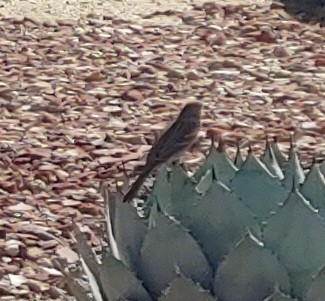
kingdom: Animalia
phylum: Chordata
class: Aves
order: Passeriformes
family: Fringillidae
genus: Haemorhous
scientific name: Haemorhous mexicanus
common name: House finch
